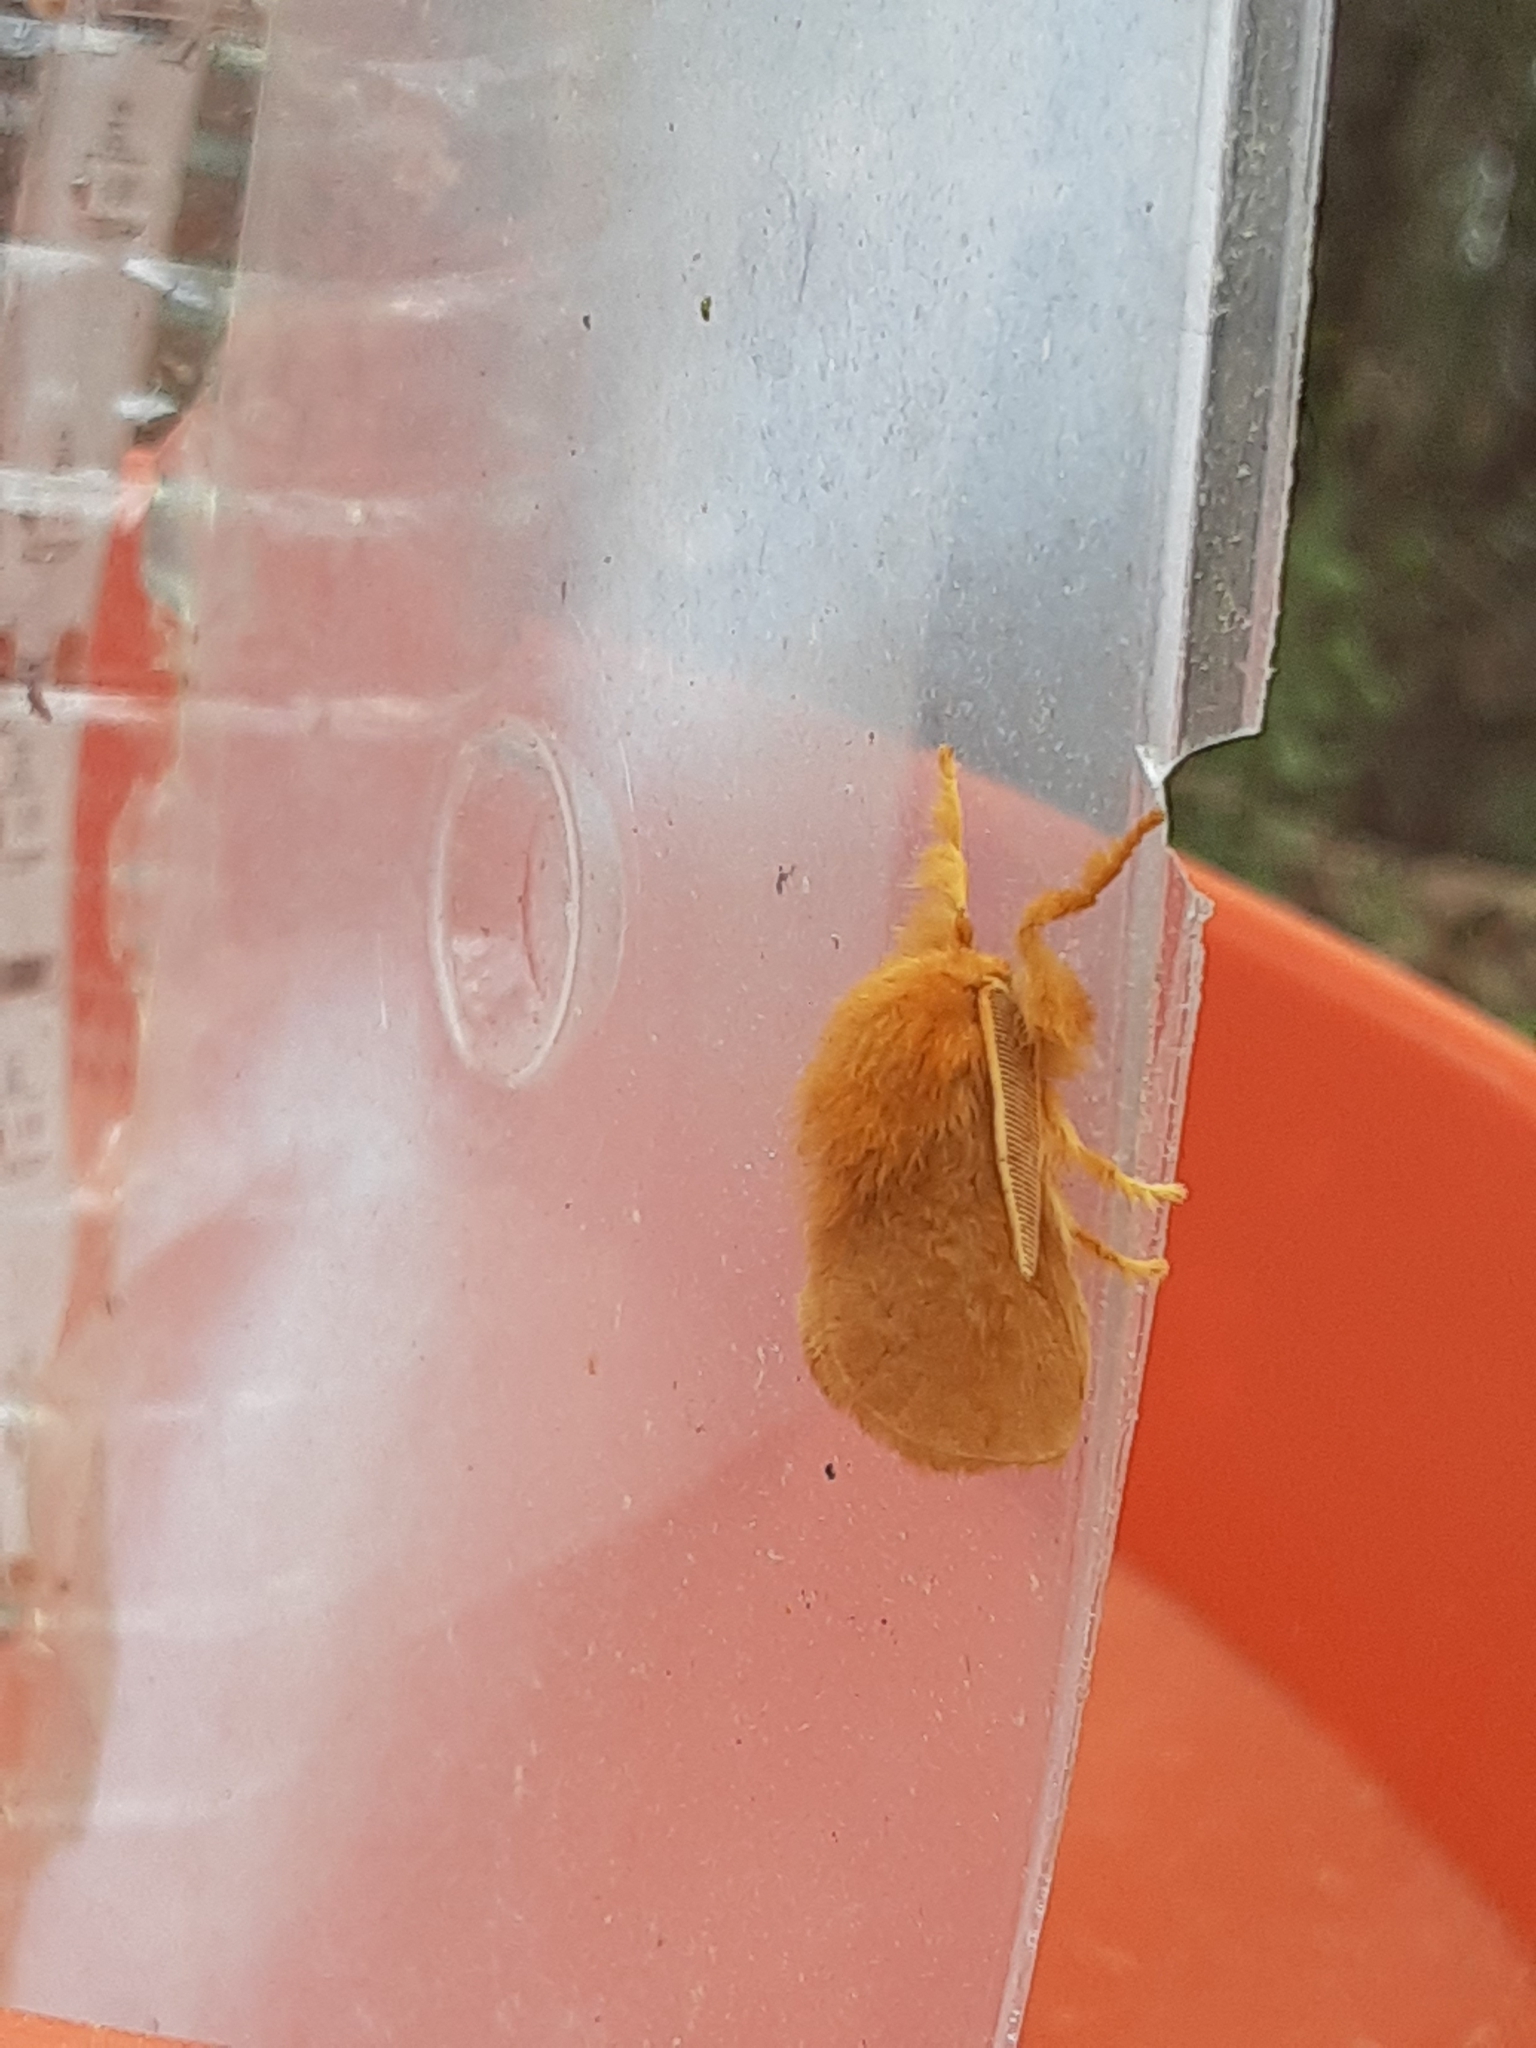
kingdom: Animalia
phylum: Arthropoda
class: Insecta
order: Lepidoptera
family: Megalopygidae
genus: Megalopyge
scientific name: Megalopyge pixidifera
